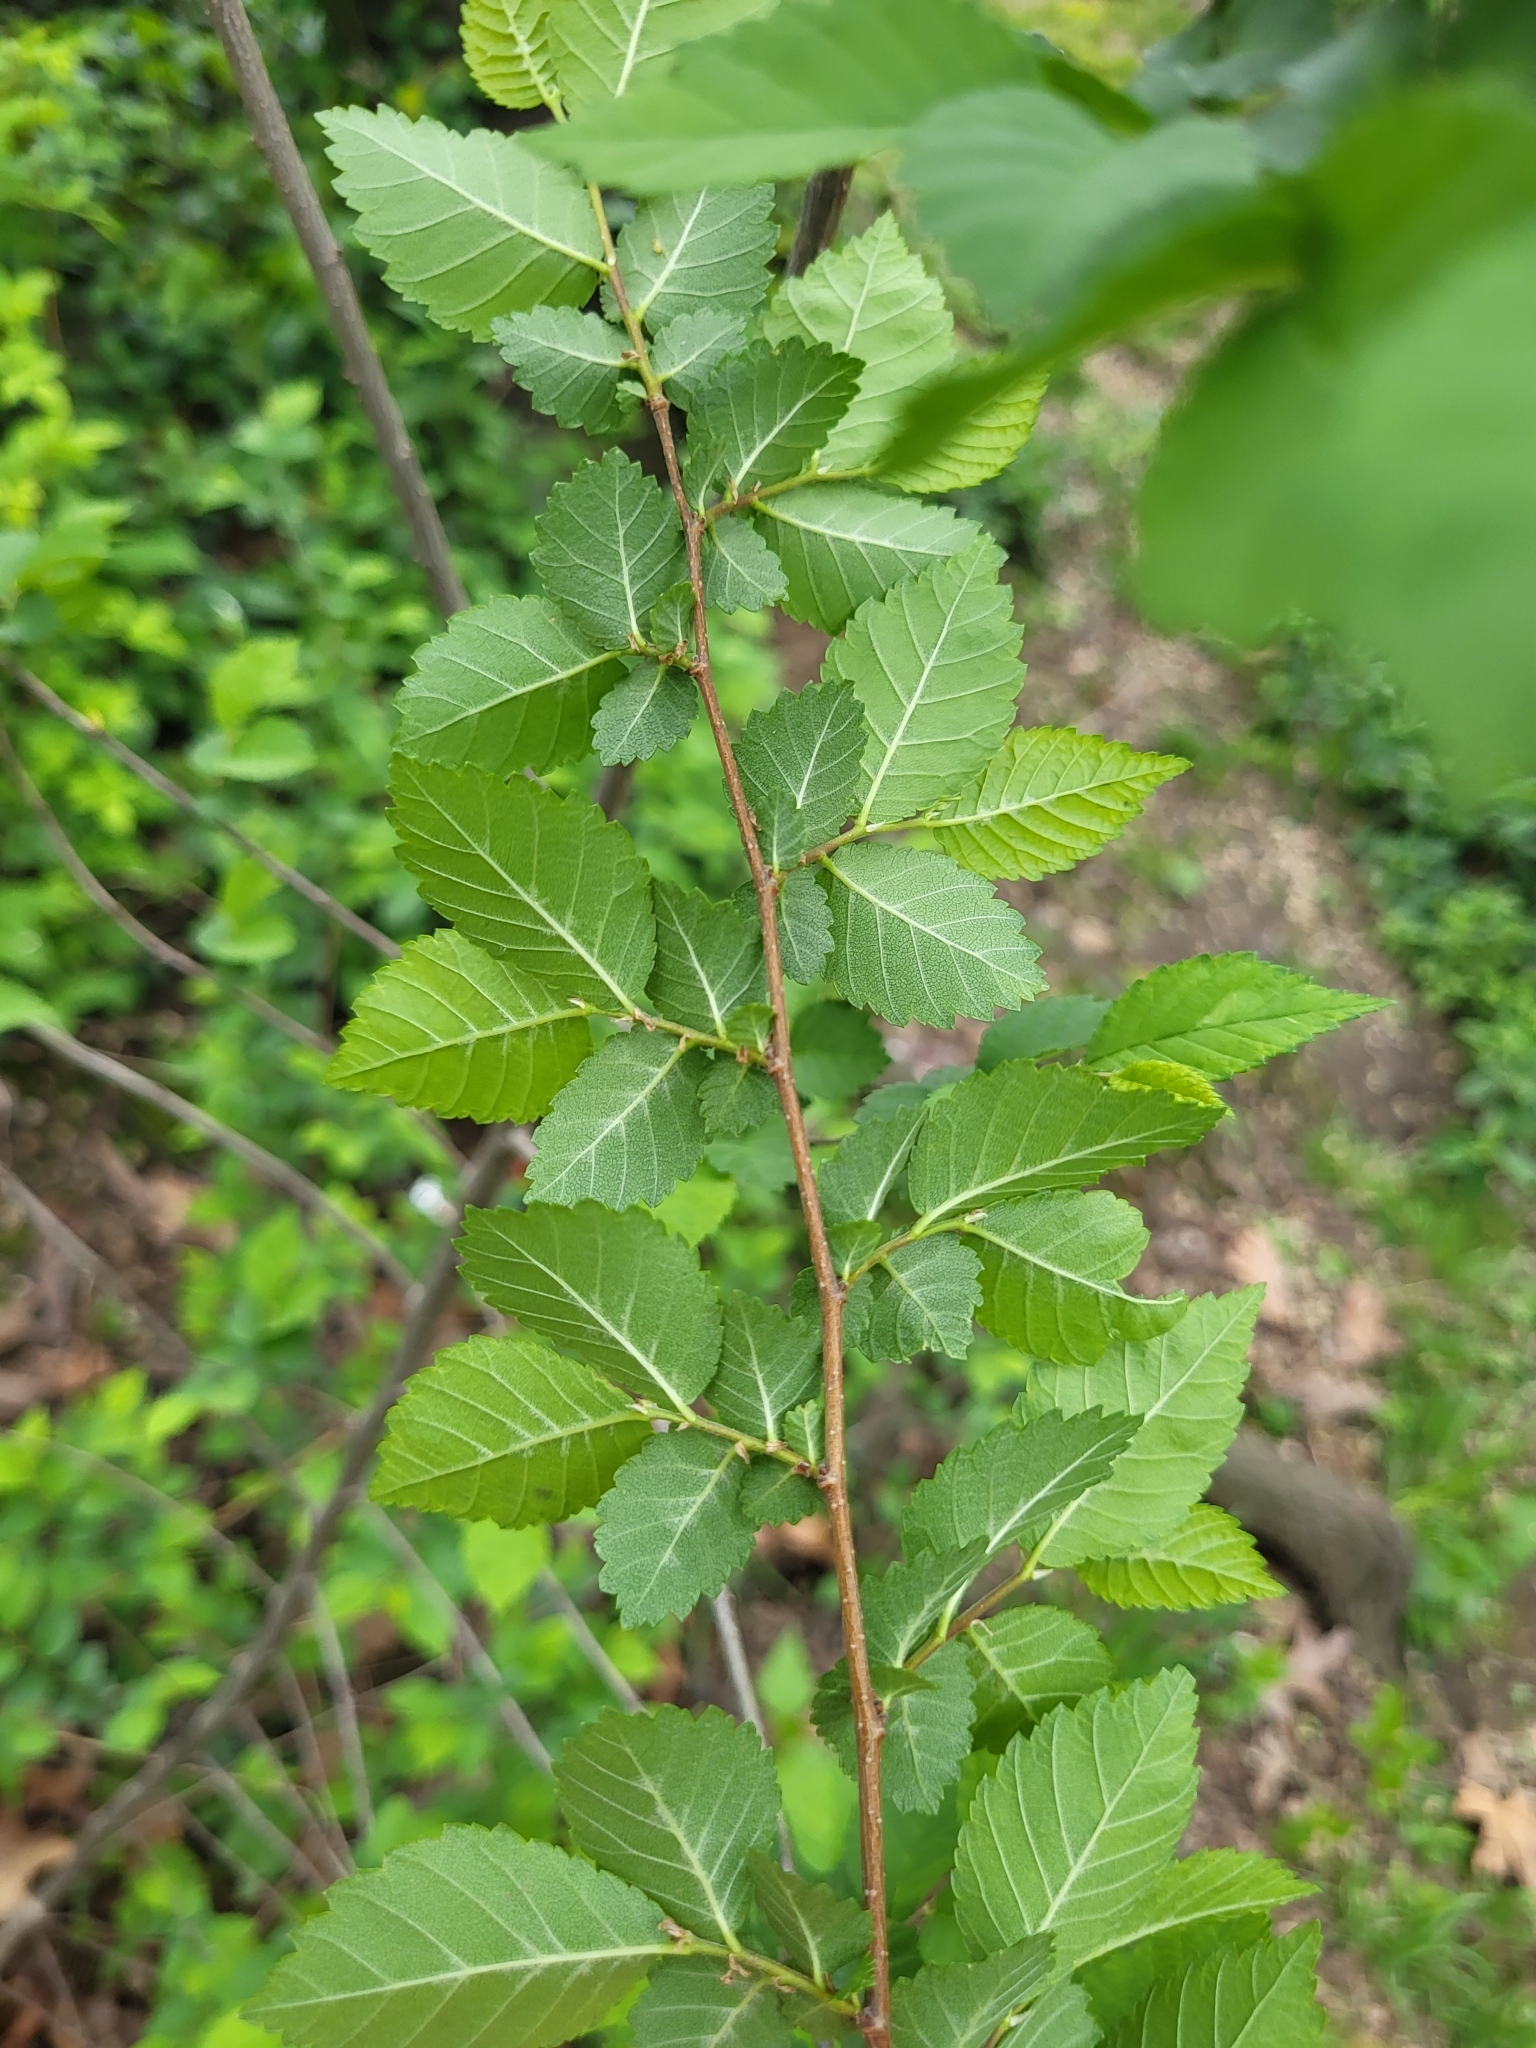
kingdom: Plantae
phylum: Tracheophyta
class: Magnoliopsida
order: Rosales
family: Ulmaceae
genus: Ulmus
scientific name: Ulmus pumila
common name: Siberian elm
